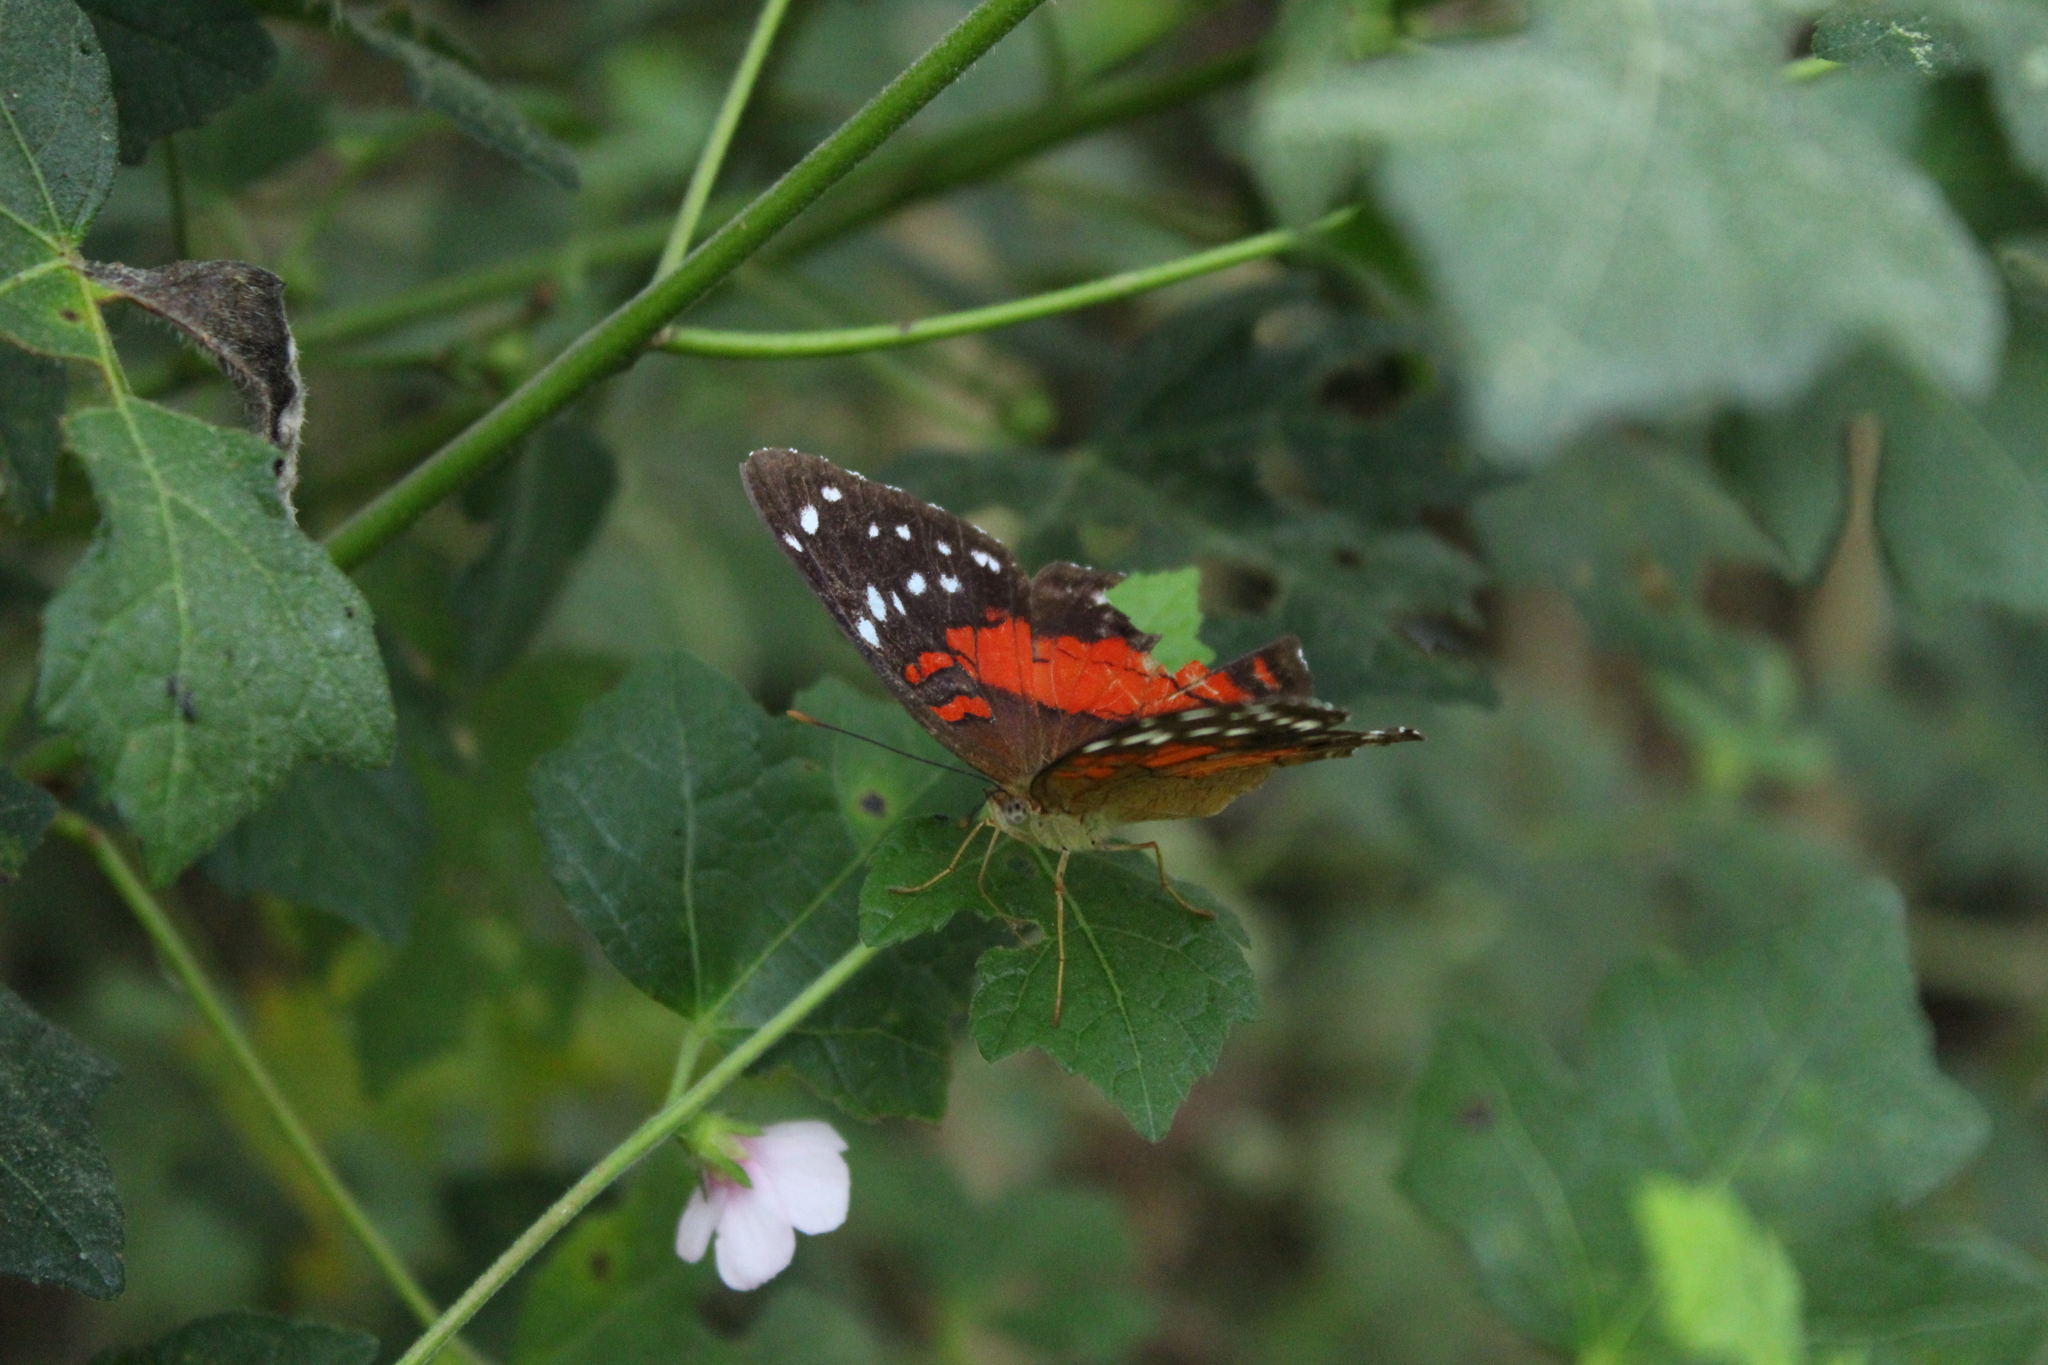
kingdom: Animalia
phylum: Arthropoda
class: Insecta
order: Lepidoptera
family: Nymphalidae
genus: Anartia
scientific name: Anartia amathea
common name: Red peacock
